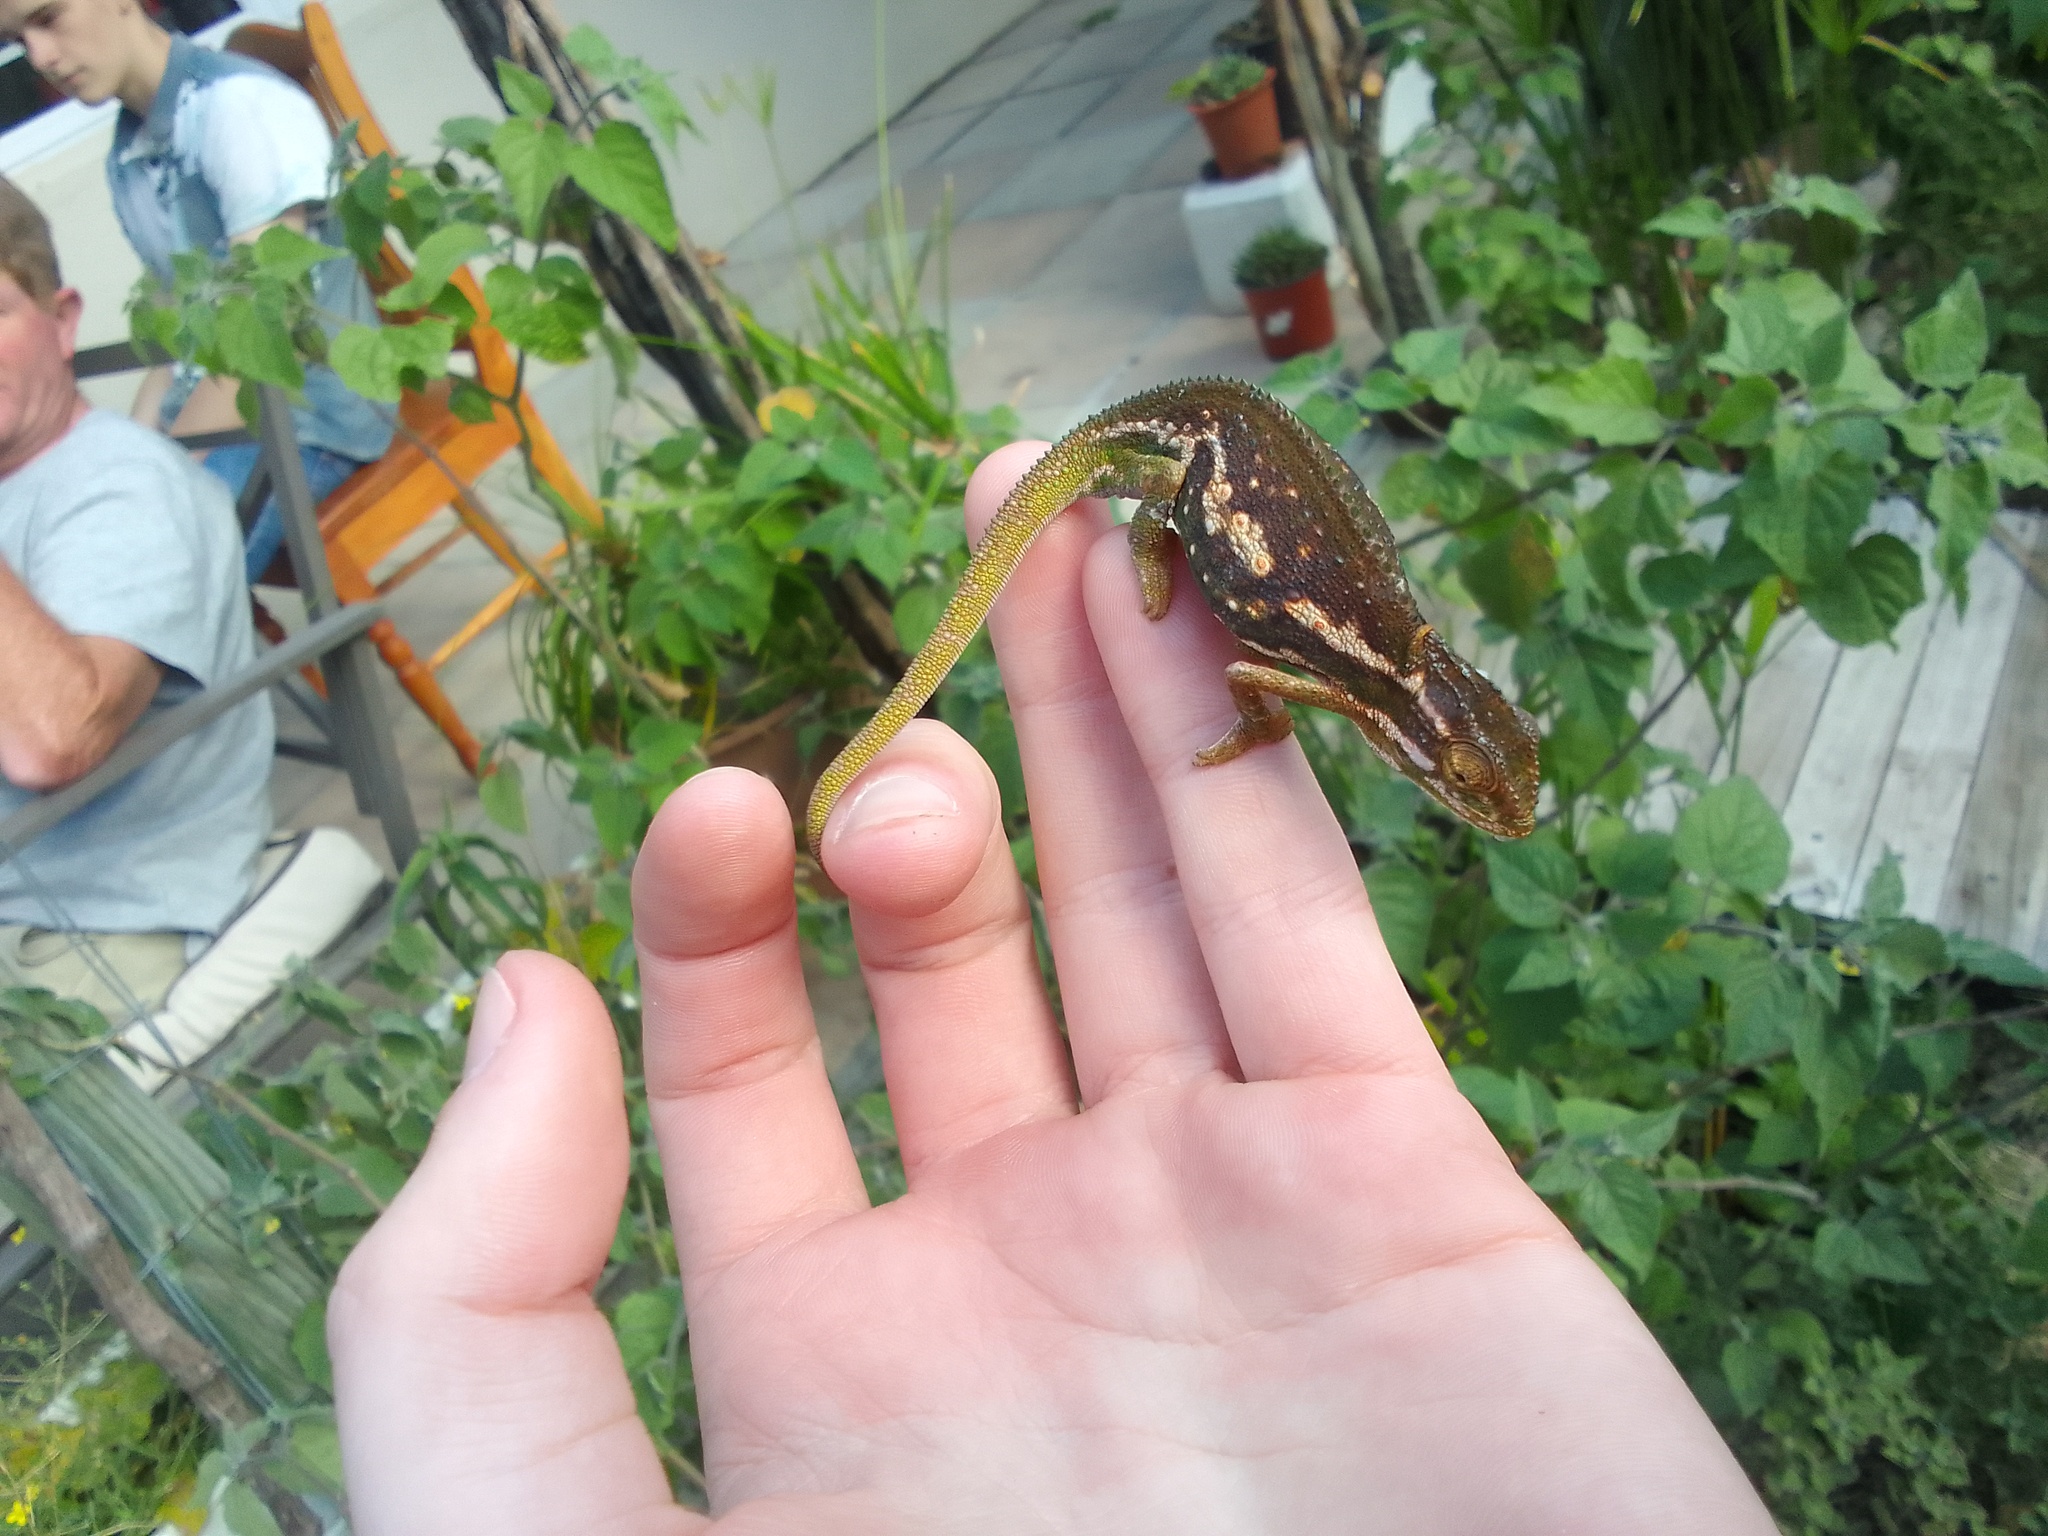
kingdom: Animalia
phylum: Chordata
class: Squamata
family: Chamaeleonidae
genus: Bradypodion
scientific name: Bradypodion pumilum
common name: Cape dwarf chameleon
